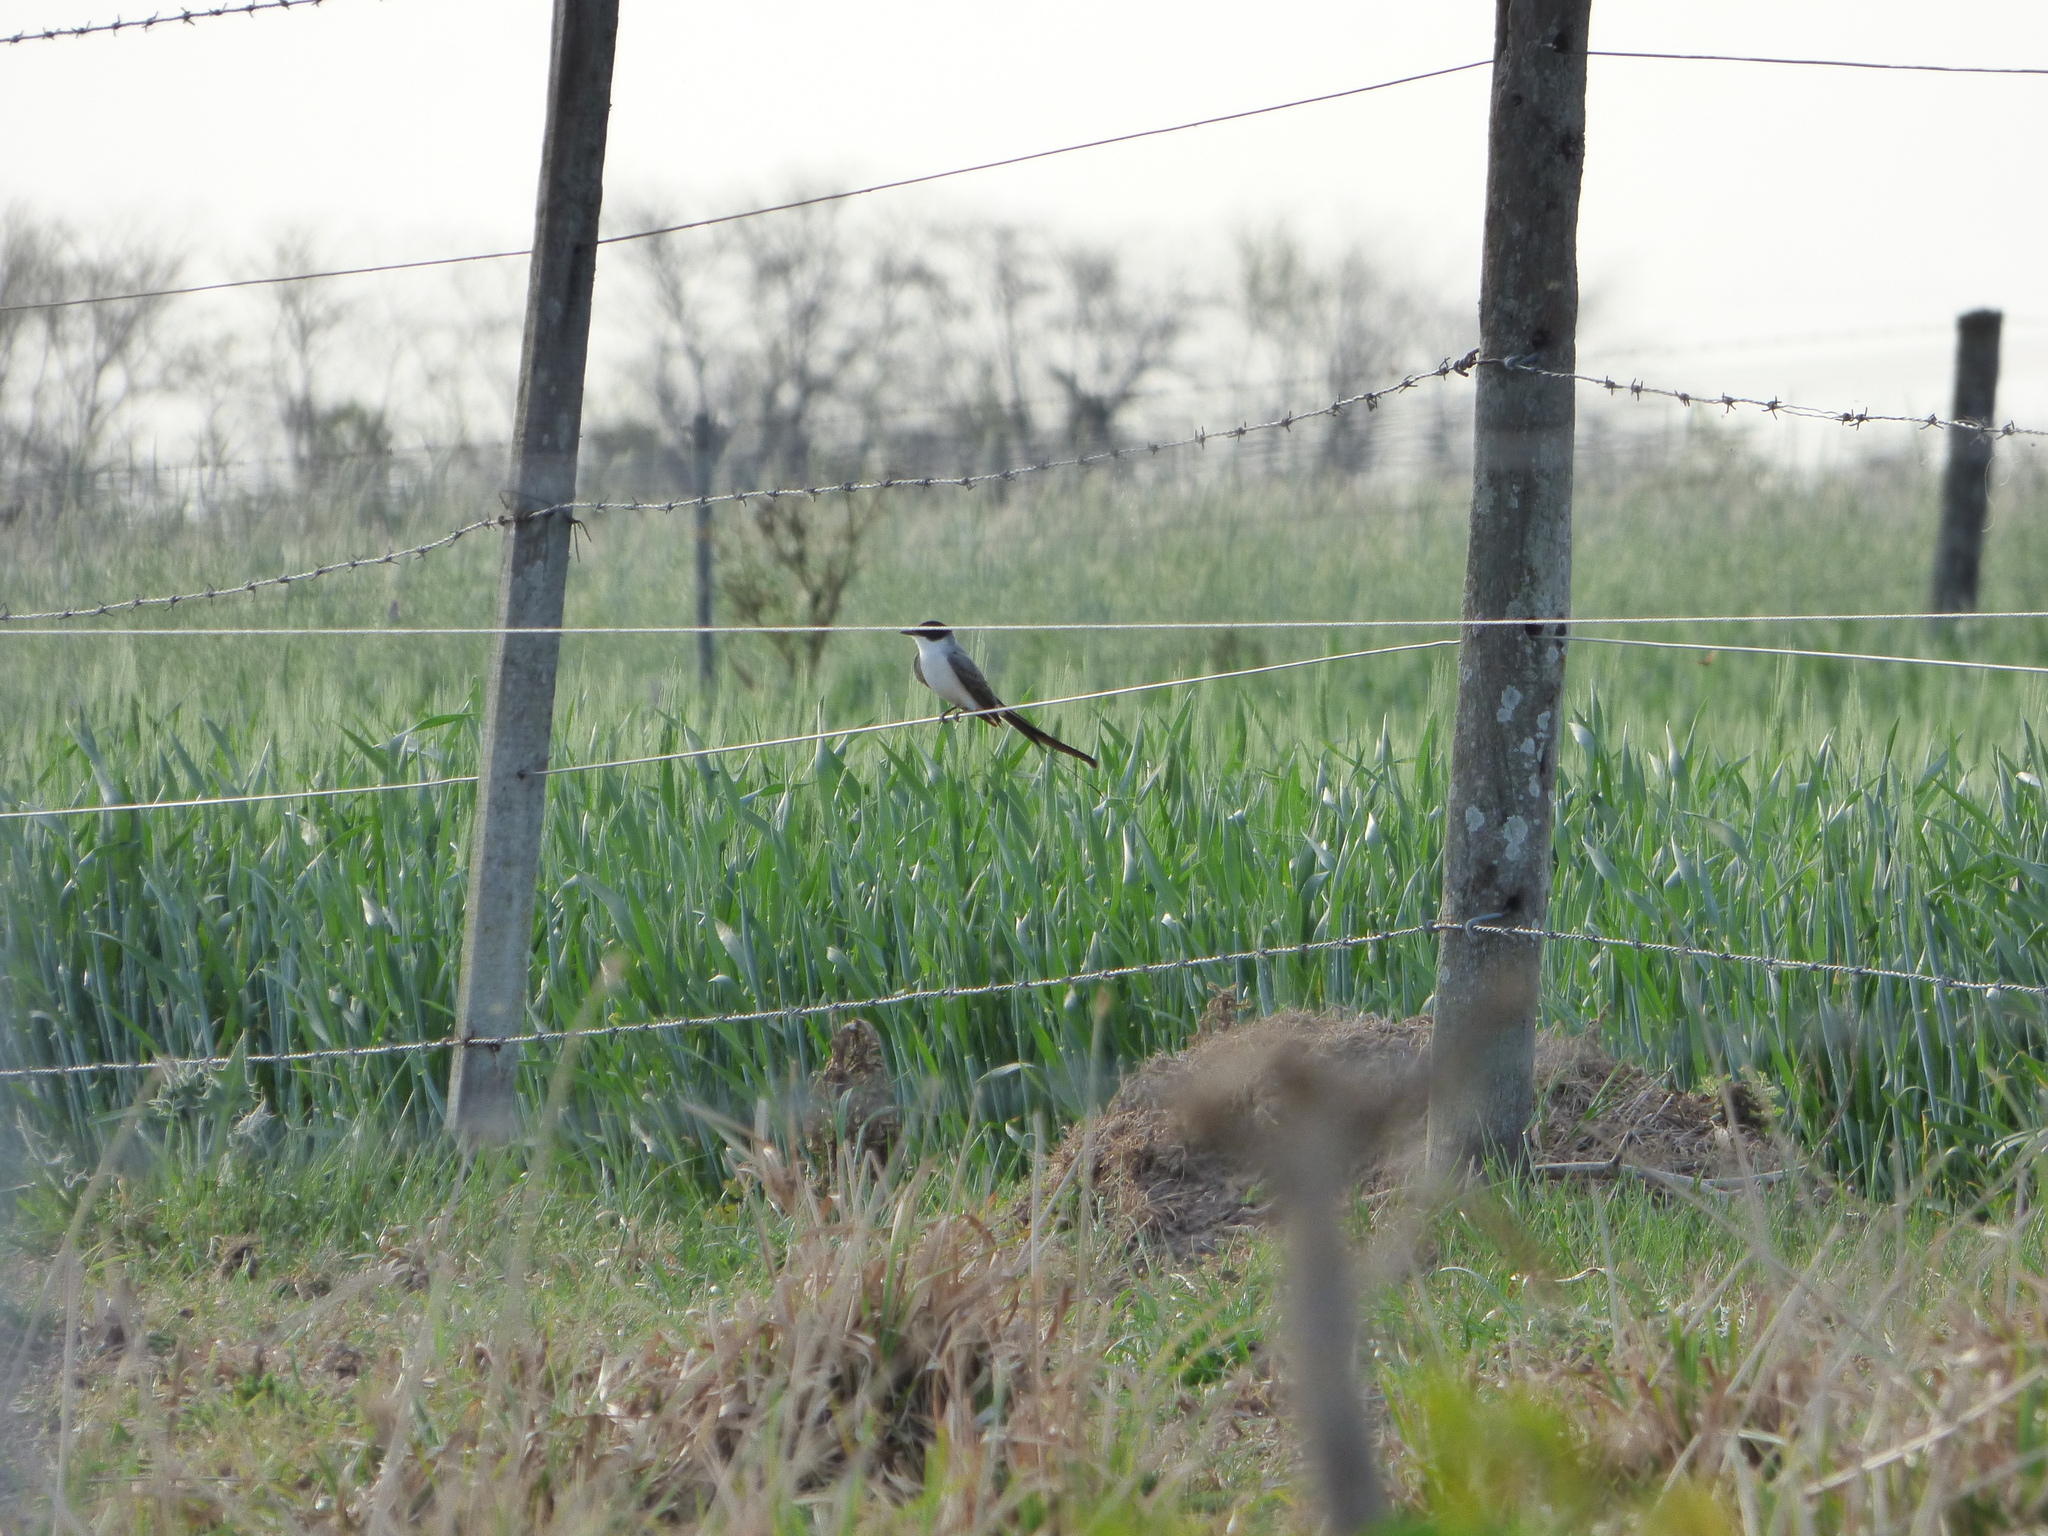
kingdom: Animalia
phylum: Chordata
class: Aves
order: Passeriformes
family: Tyrannidae
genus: Tyrannus
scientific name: Tyrannus savana
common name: Fork-tailed flycatcher
